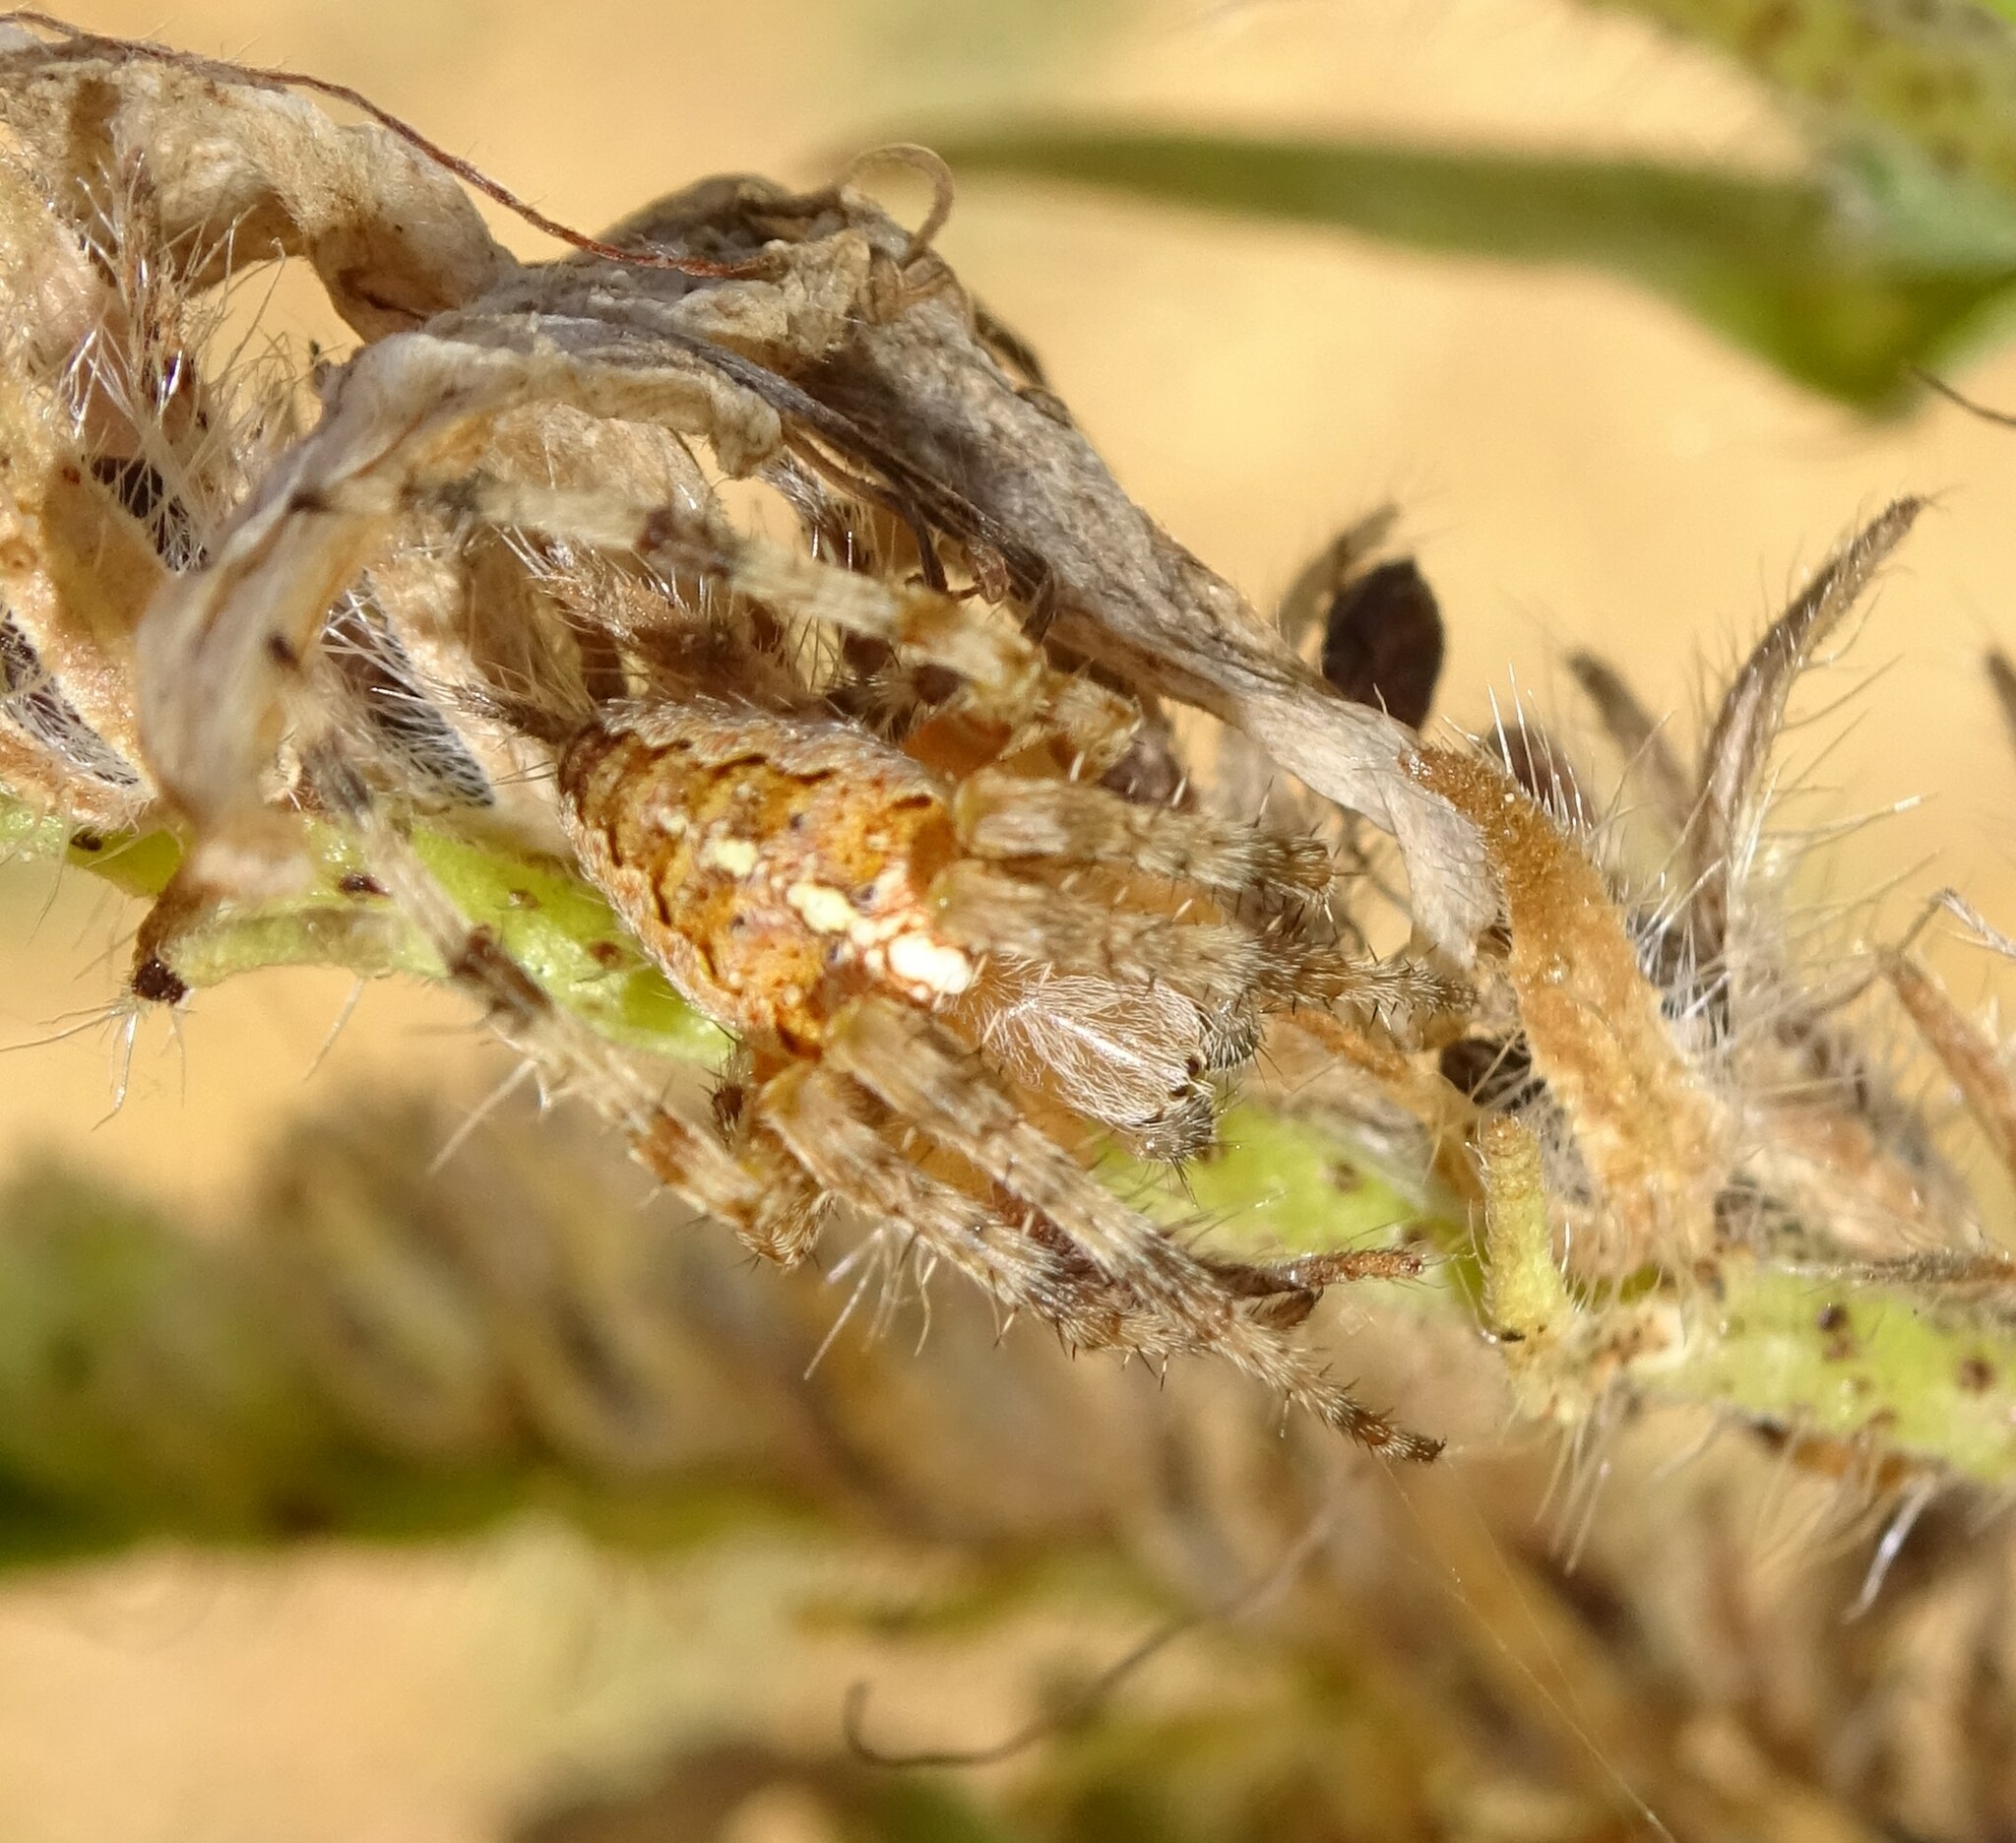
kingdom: Animalia
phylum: Arthropoda
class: Arachnida
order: Araneae
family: Araneidae
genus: Araneus
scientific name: Araneus diadematus
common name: Cross orbweaver
